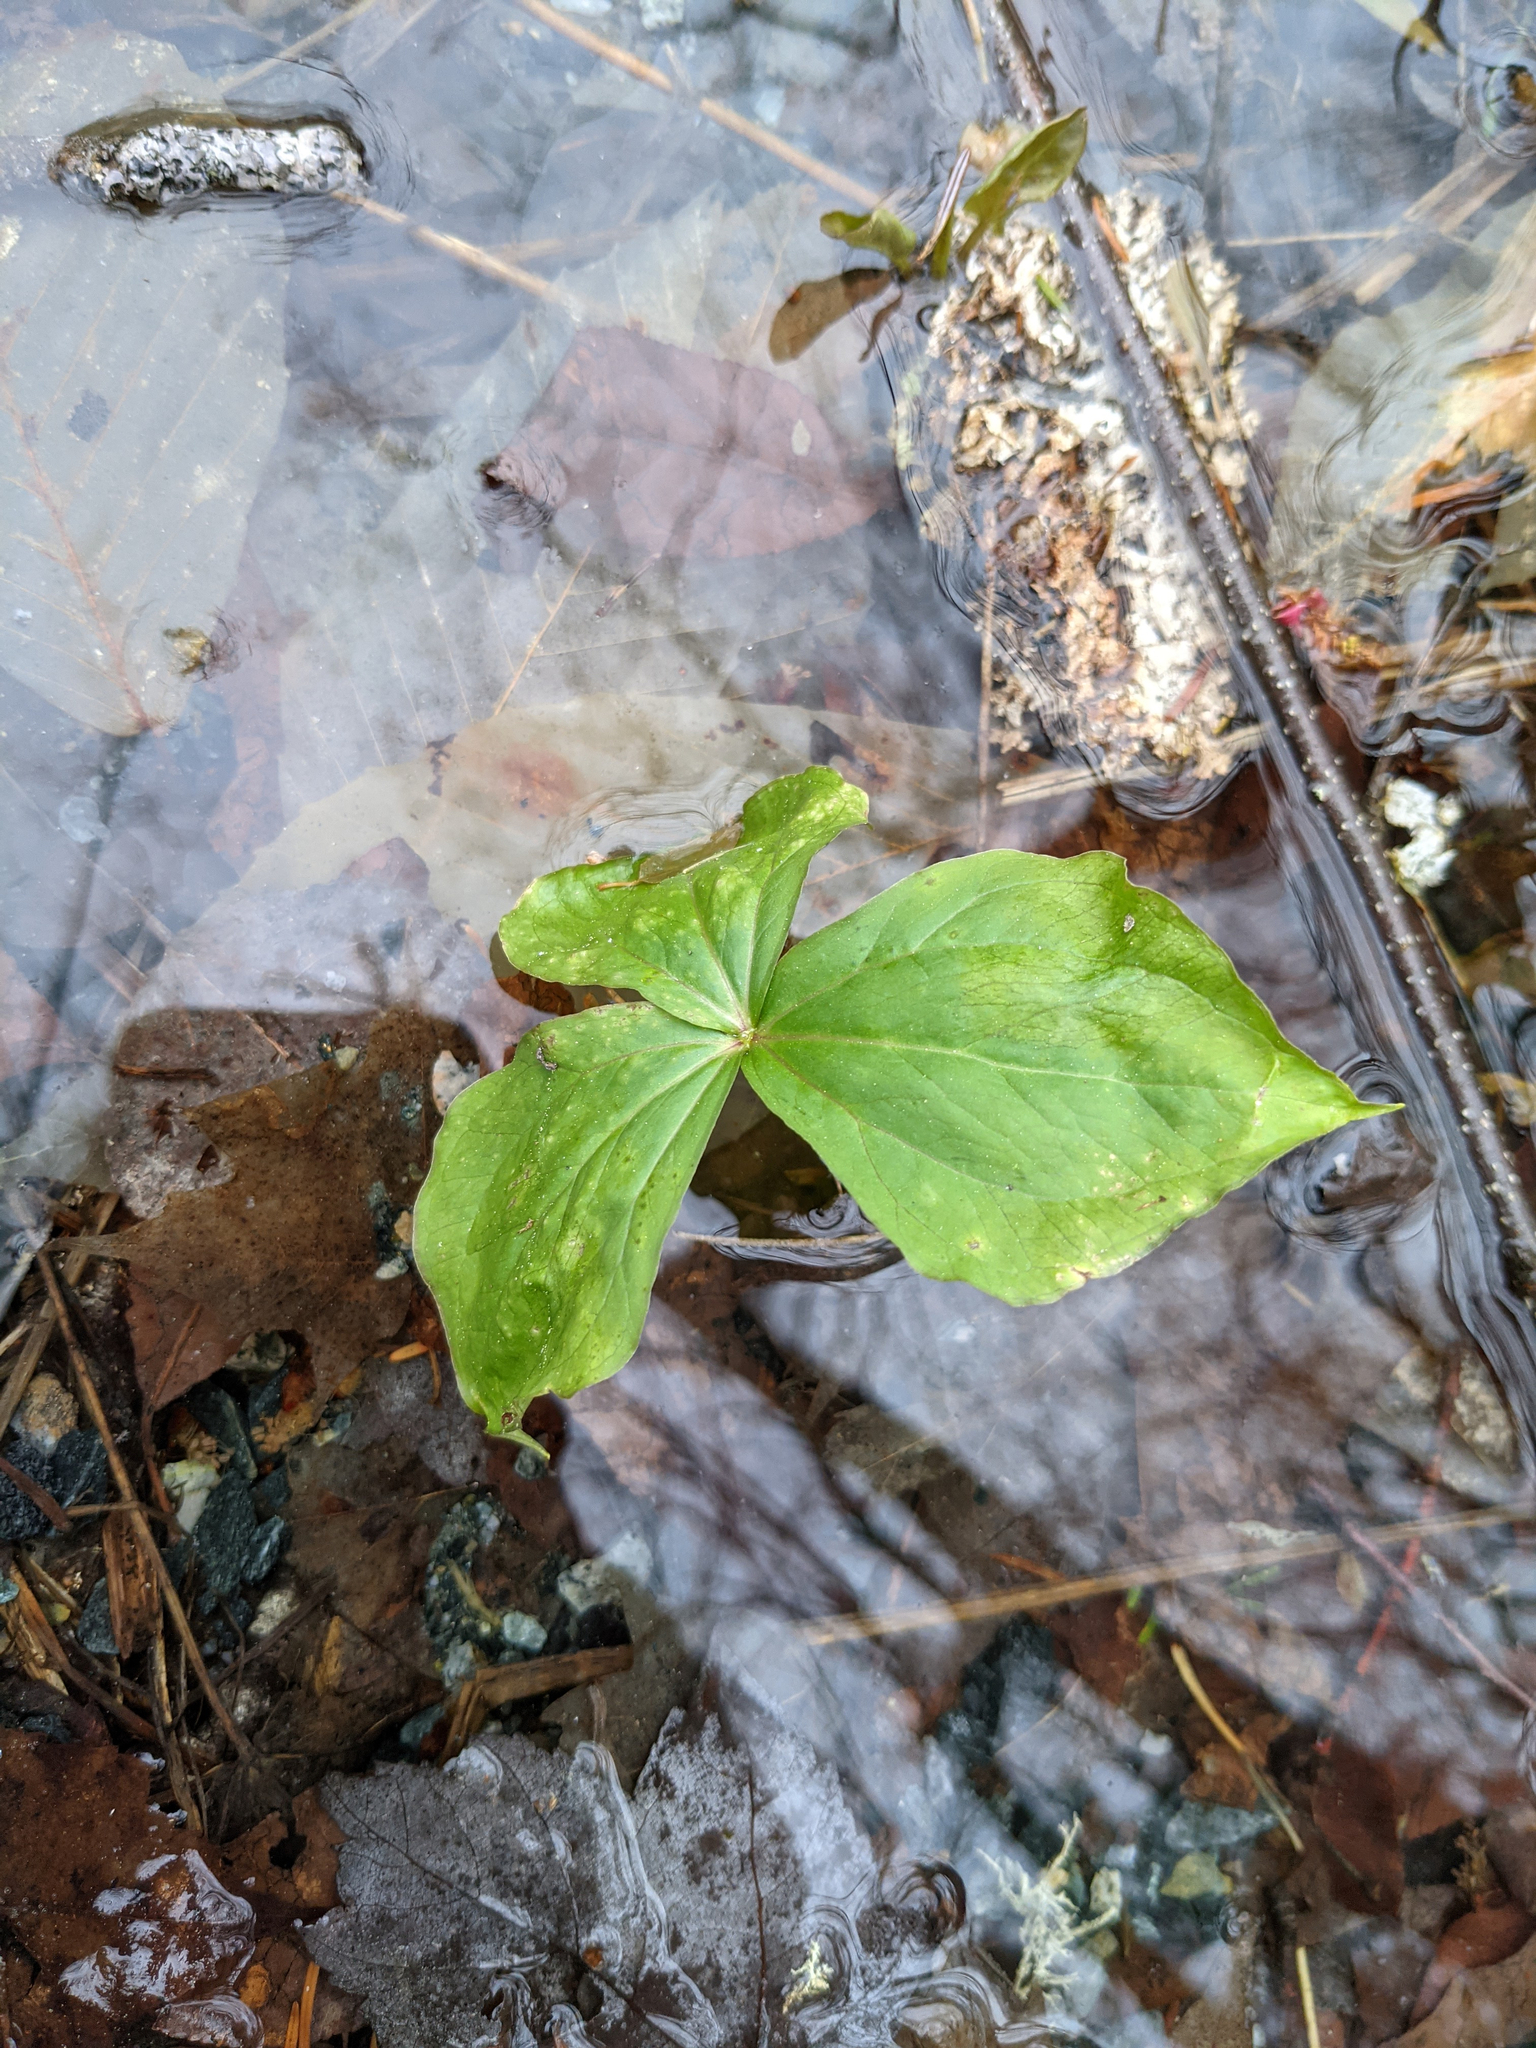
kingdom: Plantae
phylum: Tracheophyta
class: Liliopsida
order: Liliales
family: Melanthiaceae
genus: Trillium
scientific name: Trillium erectum
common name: Purple trillium
